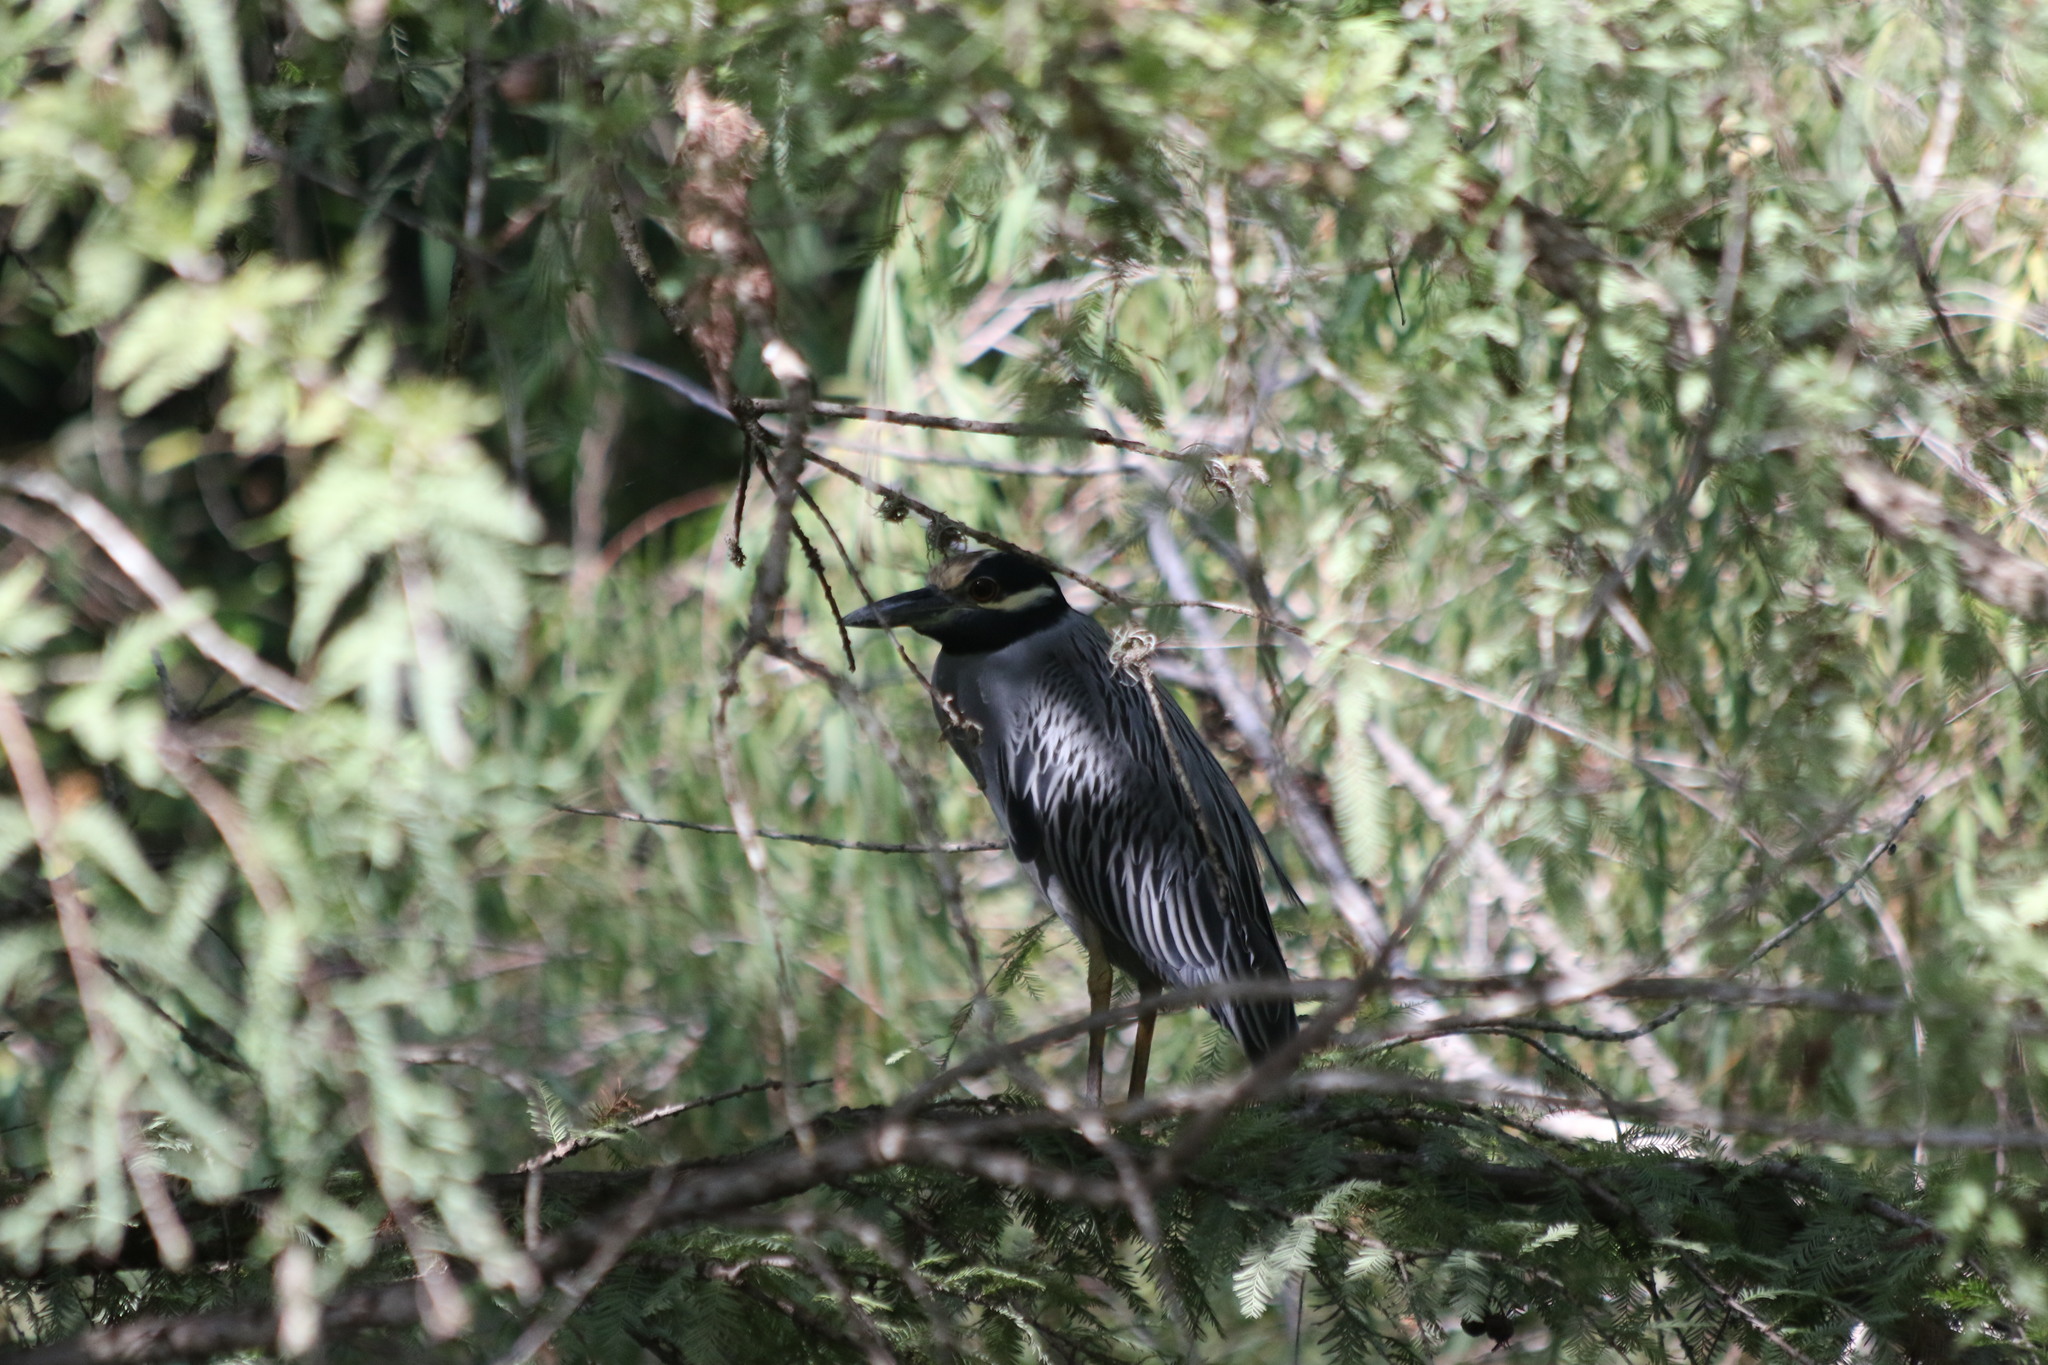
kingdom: Animalia
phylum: Chordata
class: Aves
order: Pelecaniformes
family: Ardeidae
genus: Nyctanassa
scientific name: Nyctanassa violacea
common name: Yellow-crowned night heron
